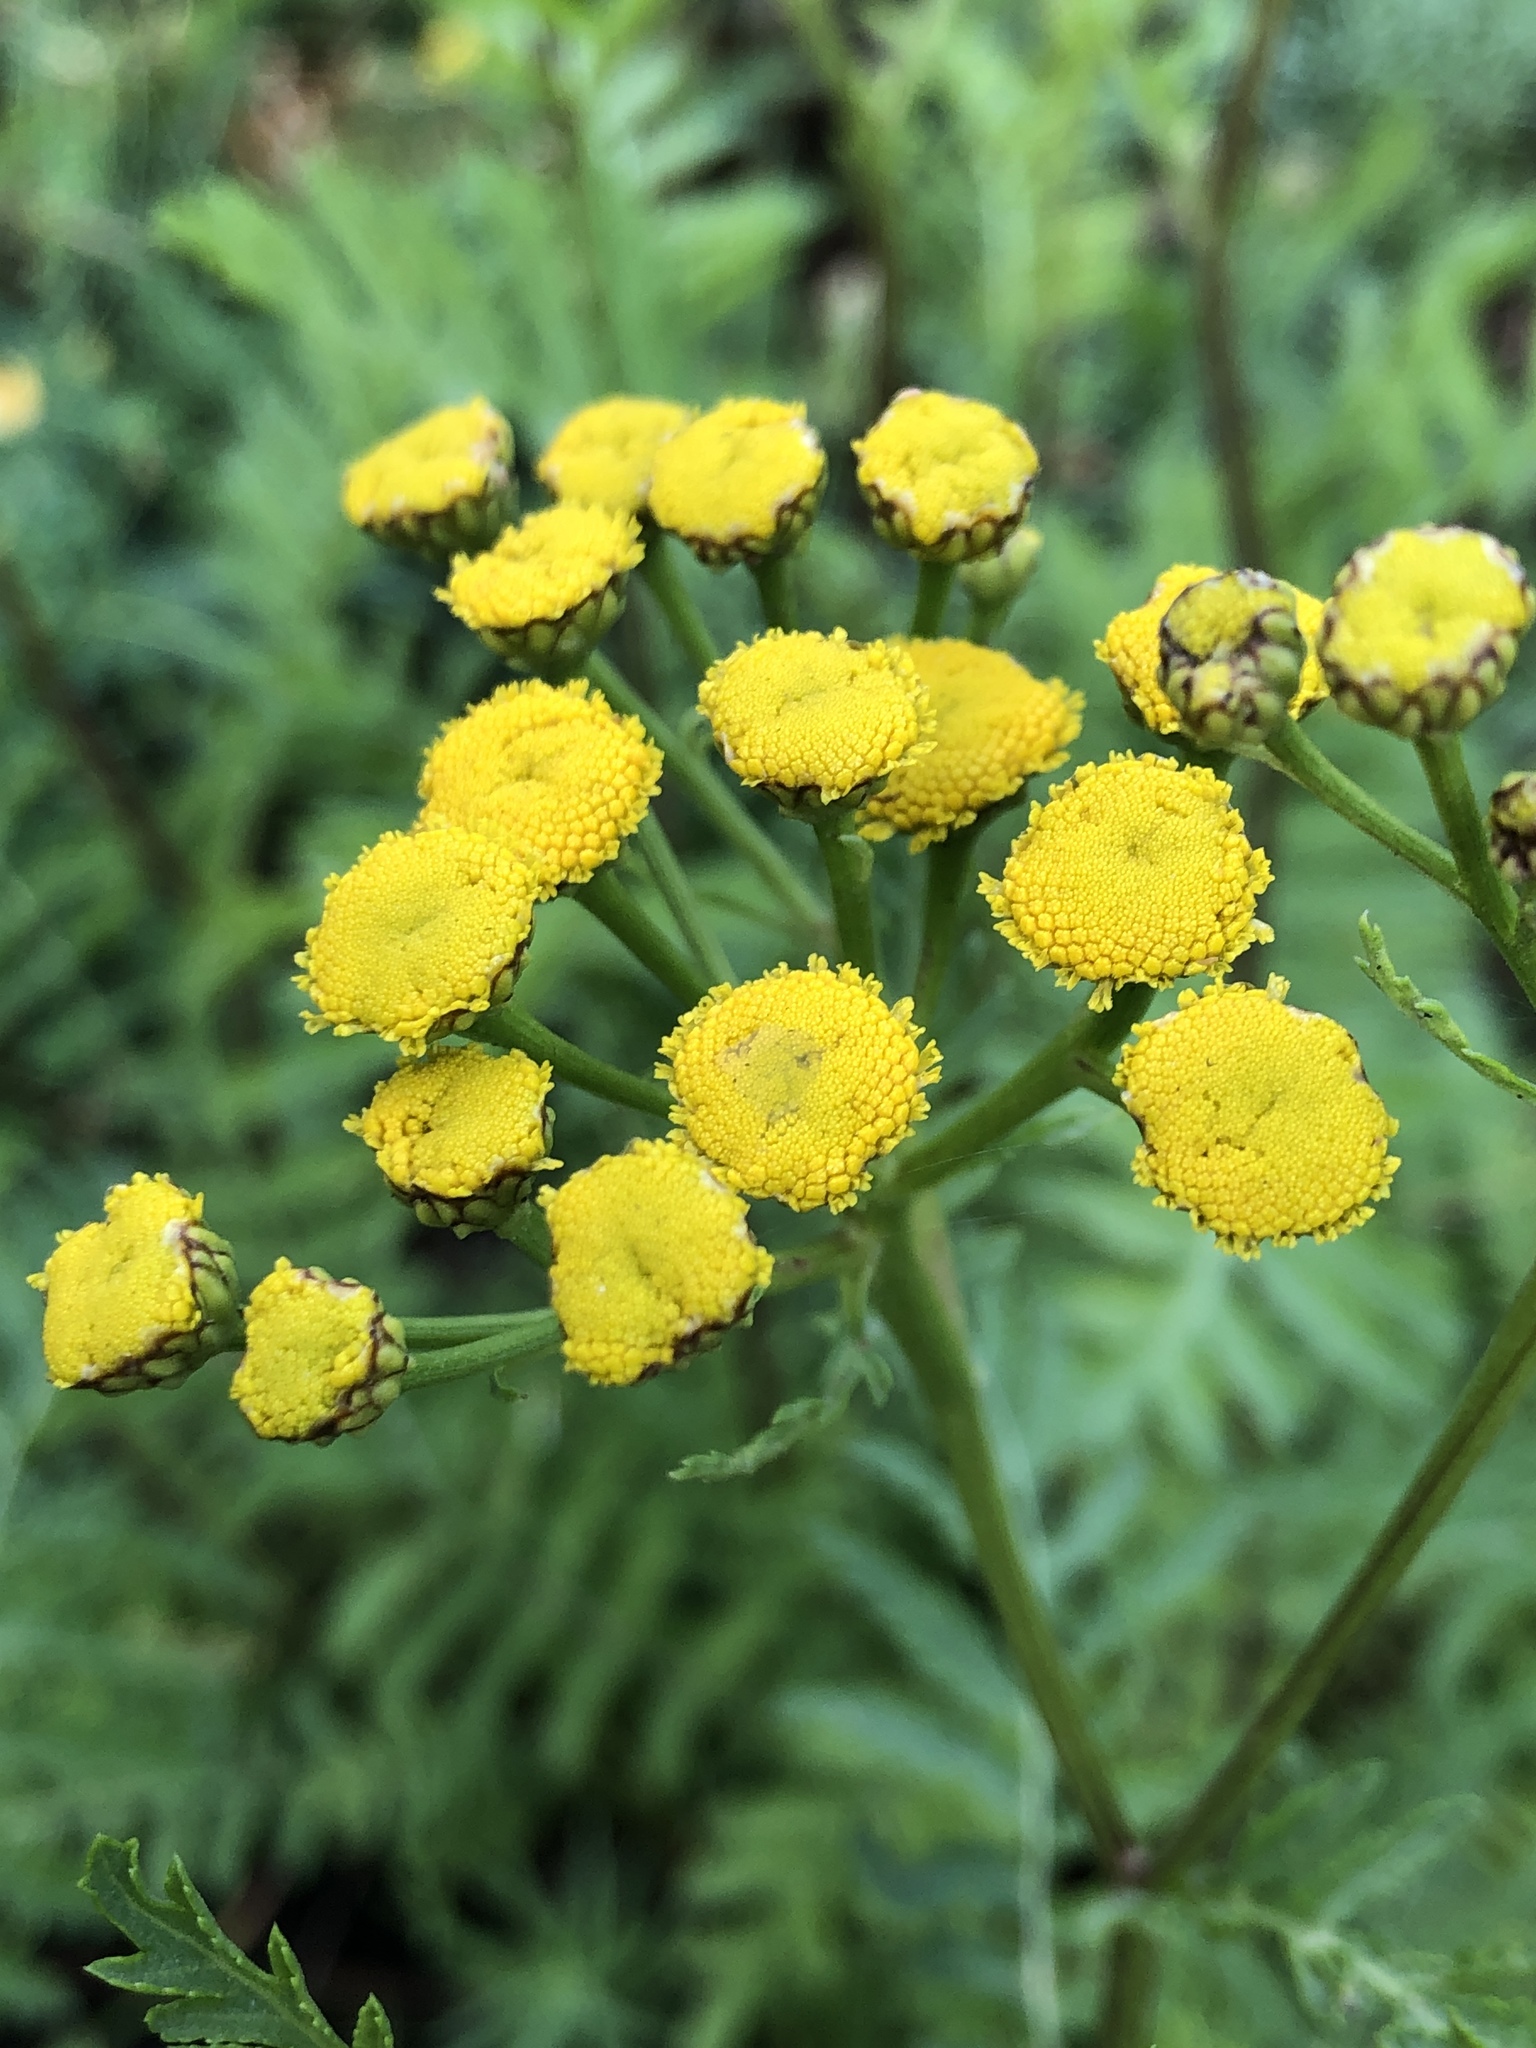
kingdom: Plantae
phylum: Tracheophyta
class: Magnoliopsida
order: Asterales
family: Asteraceae
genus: Tanacetum
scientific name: Tanacetum vulgare
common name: Common tansy
